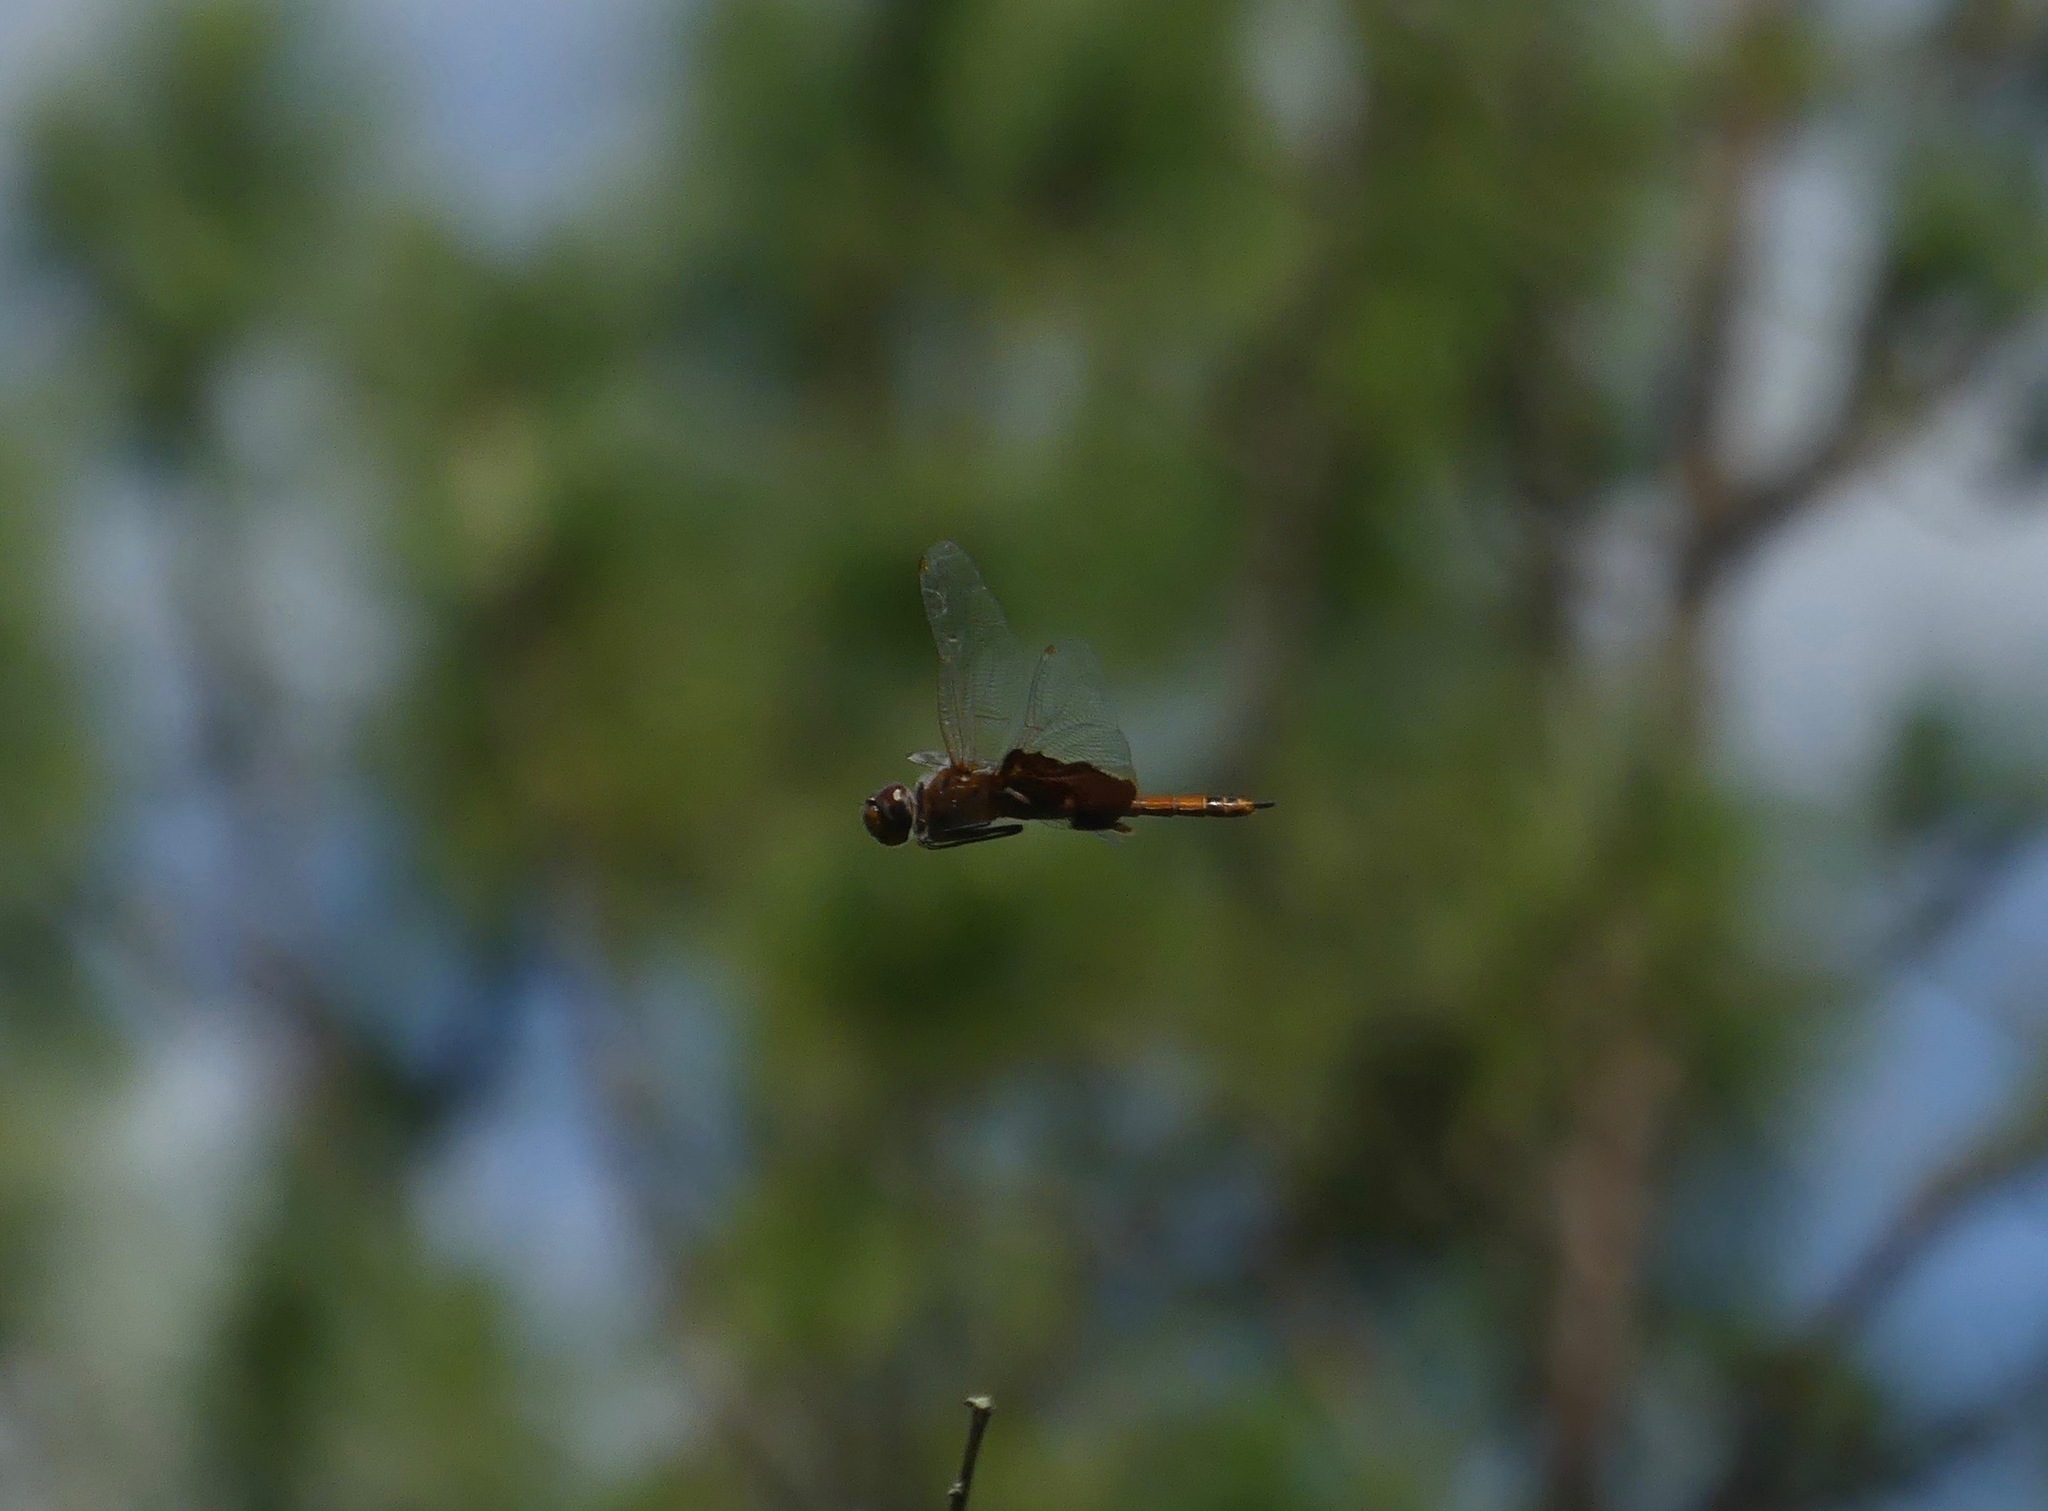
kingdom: Animalia
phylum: Arthropoda
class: Insecta
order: Odonata
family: Libellulidae
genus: Tramea
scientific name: Tramea carolina
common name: Carolina saddlebags
